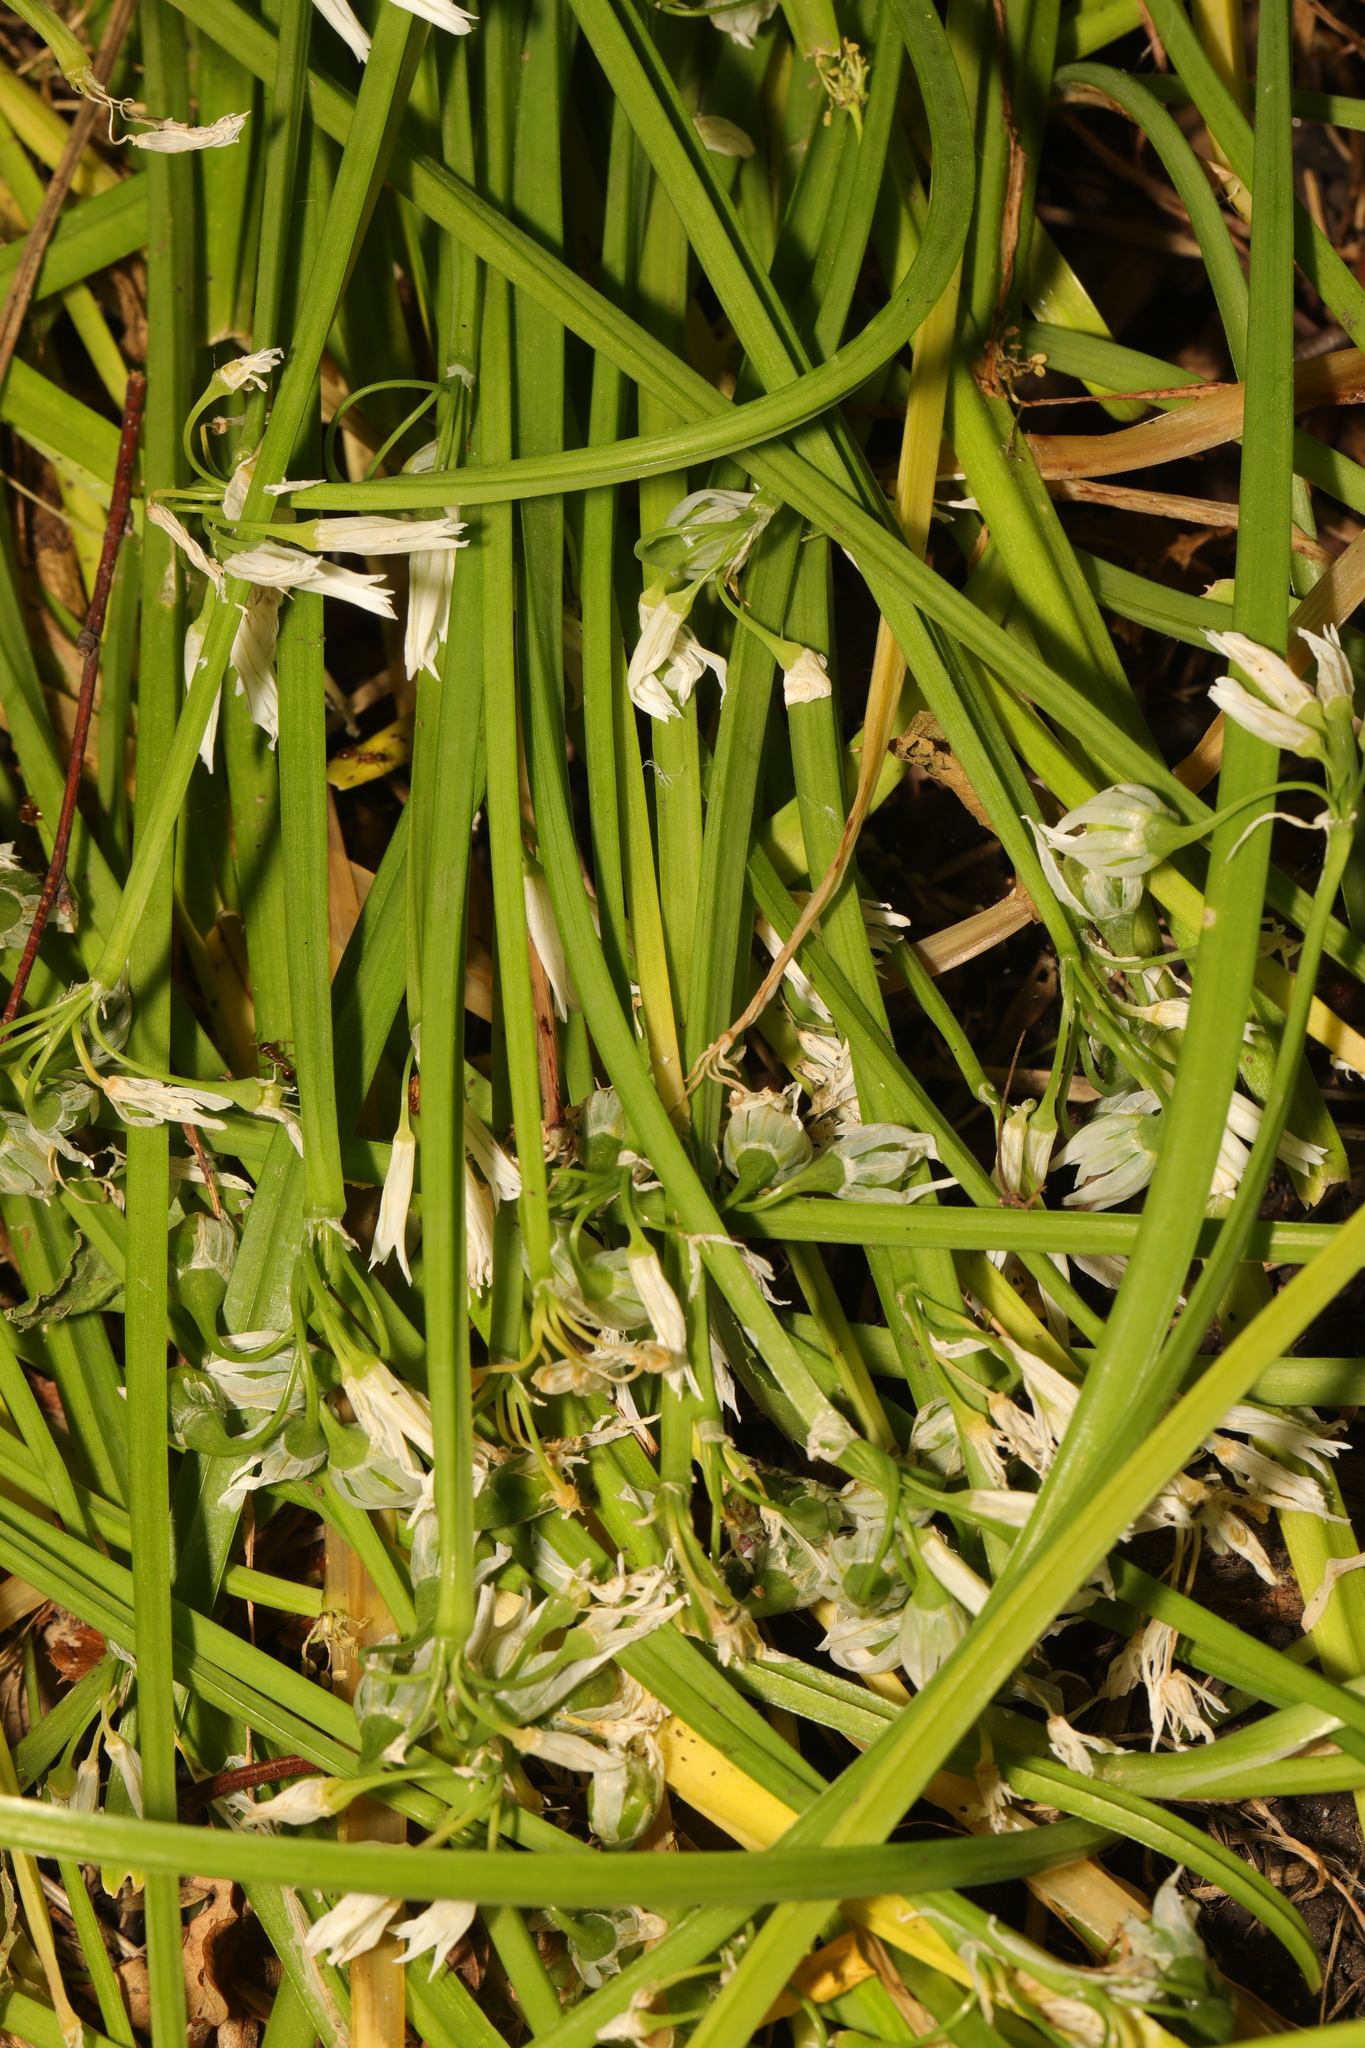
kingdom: Plantae
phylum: Tracheophyta
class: Liliopsida
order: Asparagales
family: Amaryllidaceae
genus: Allium
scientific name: Allium triquetrum
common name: Three-cornered garlic
